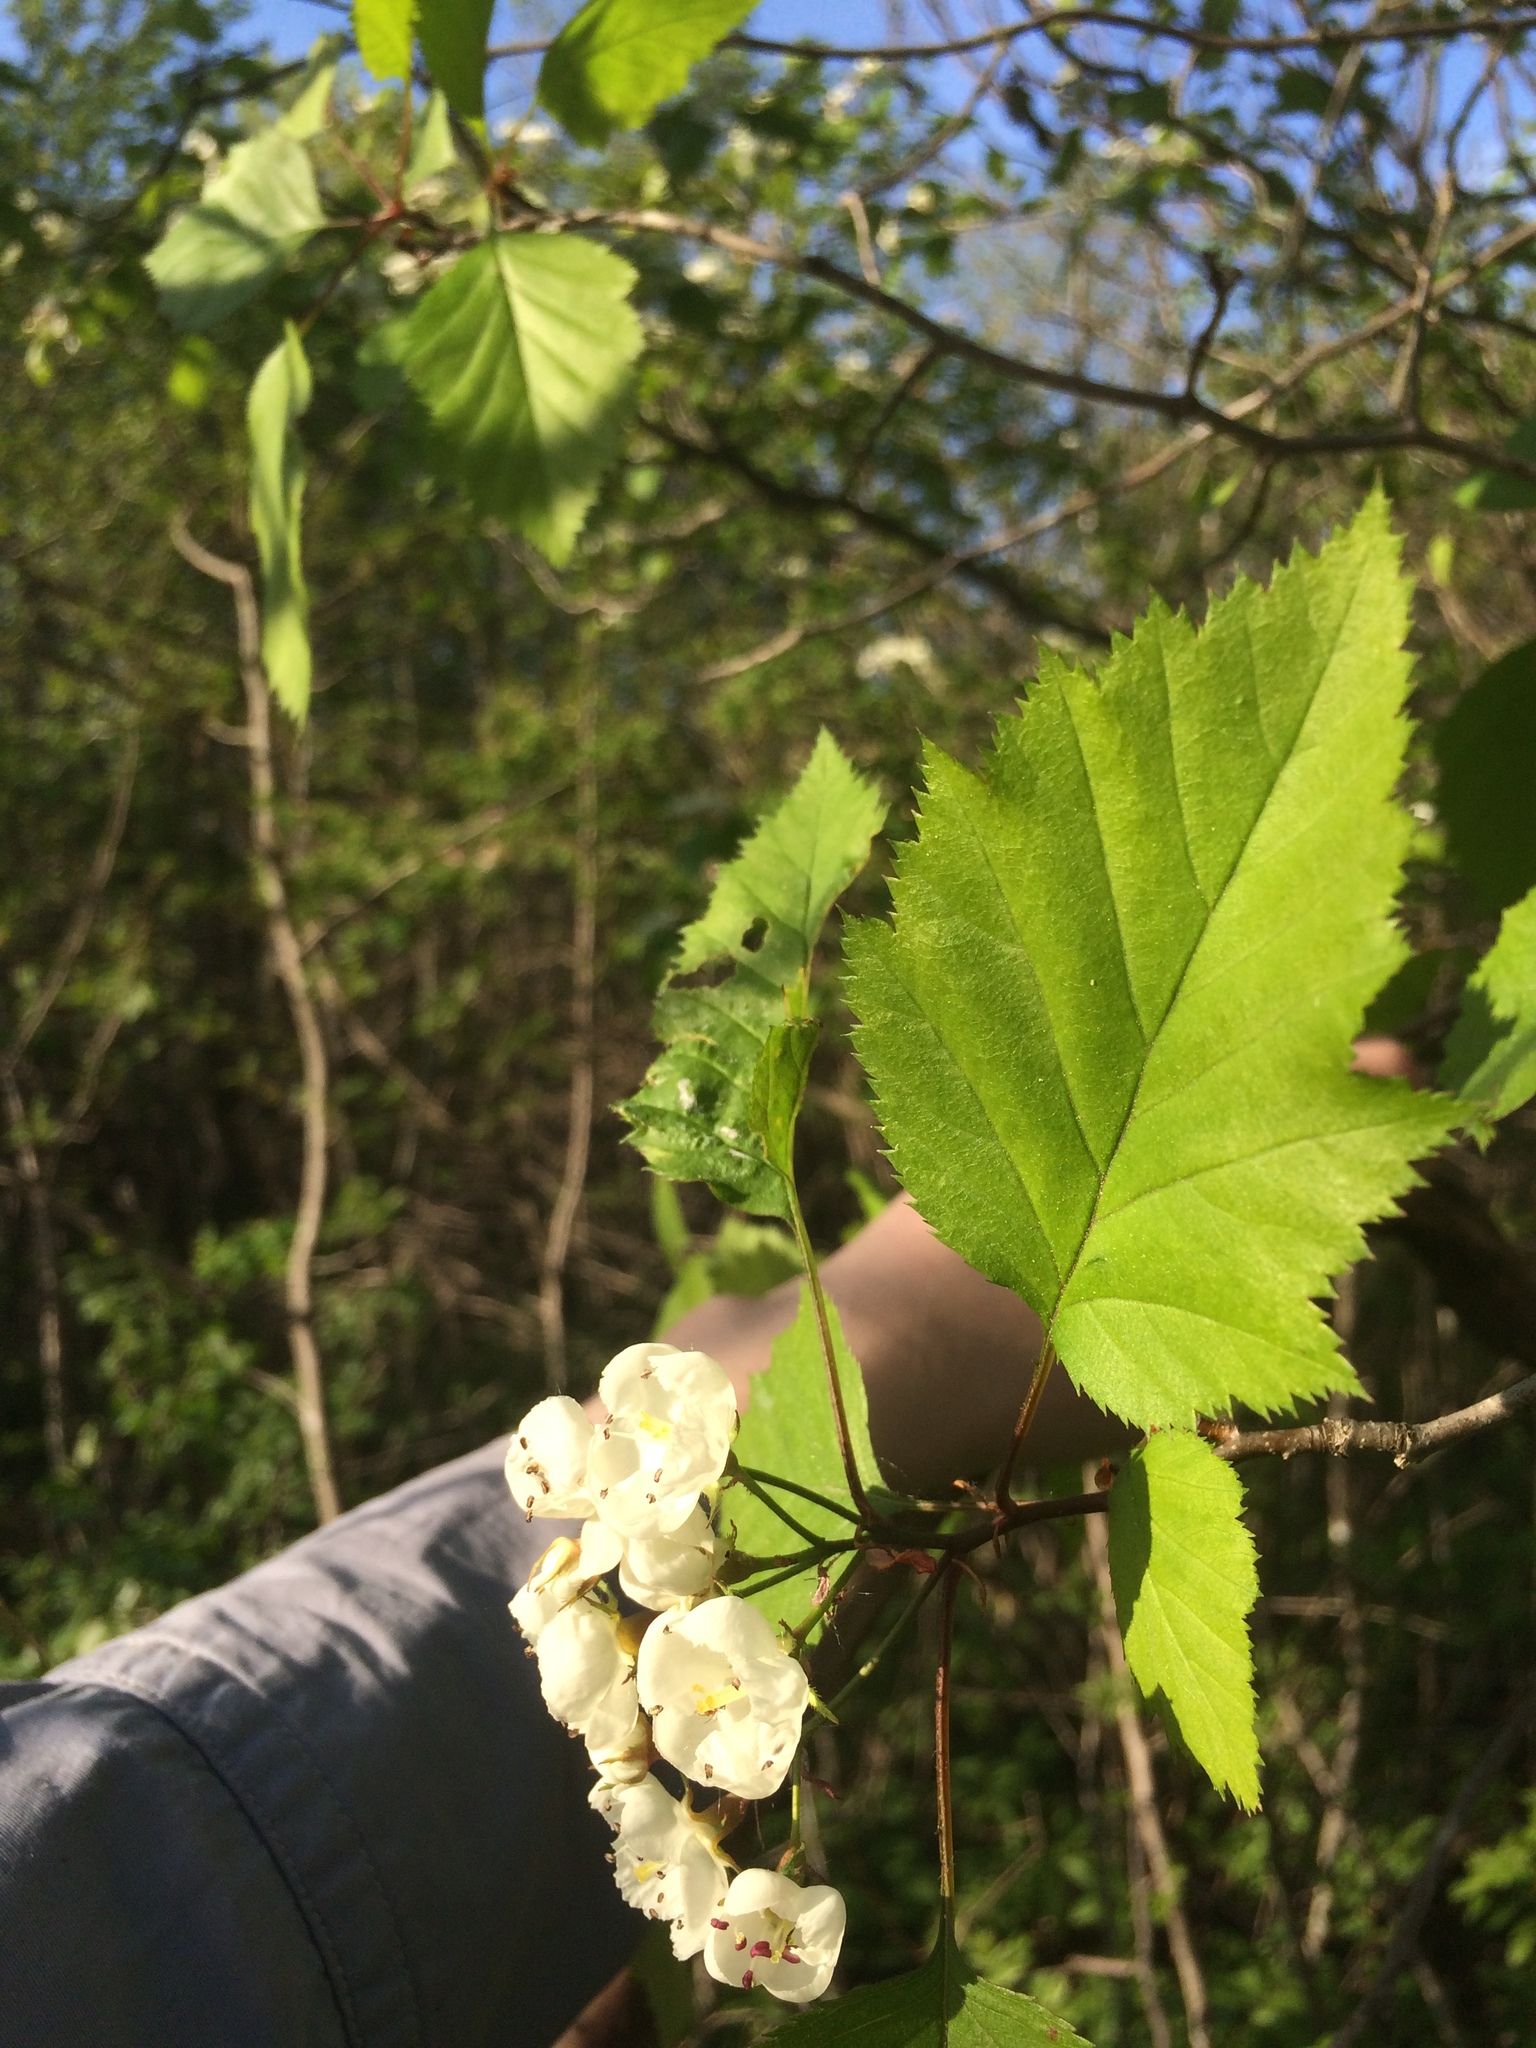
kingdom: Plantae
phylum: Tracheophyta
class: Magnoliopsida
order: Rosales
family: Rosaceae
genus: Crataegus
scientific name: Crataegus holmesiana
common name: Holmes' hawthorn
